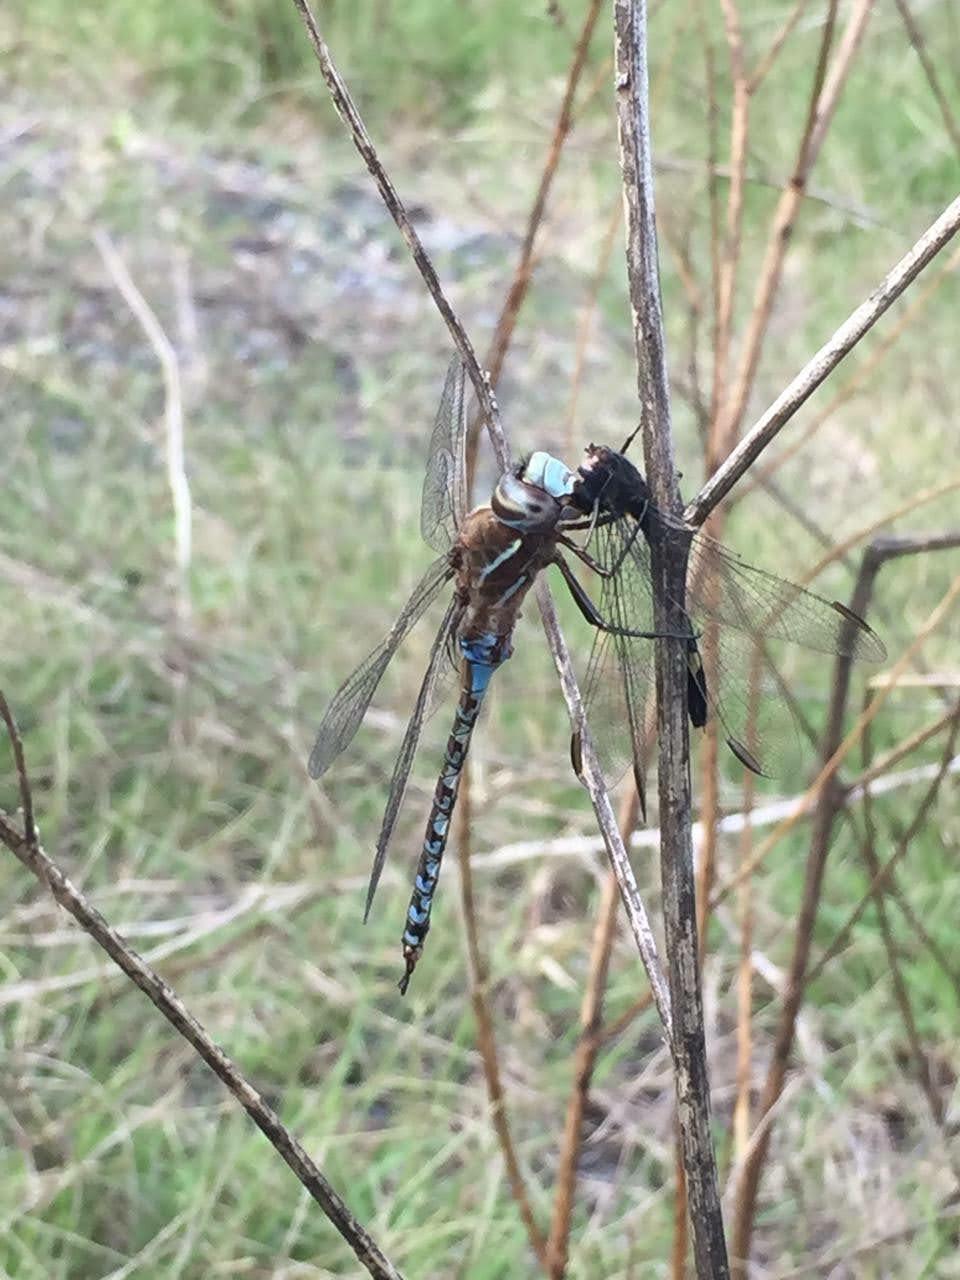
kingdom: Animalia
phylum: Arthropoda
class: Insecta
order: Odonata
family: Aeshnidae
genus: Rhionaeschna
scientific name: Rhionaeschna bonariensis
